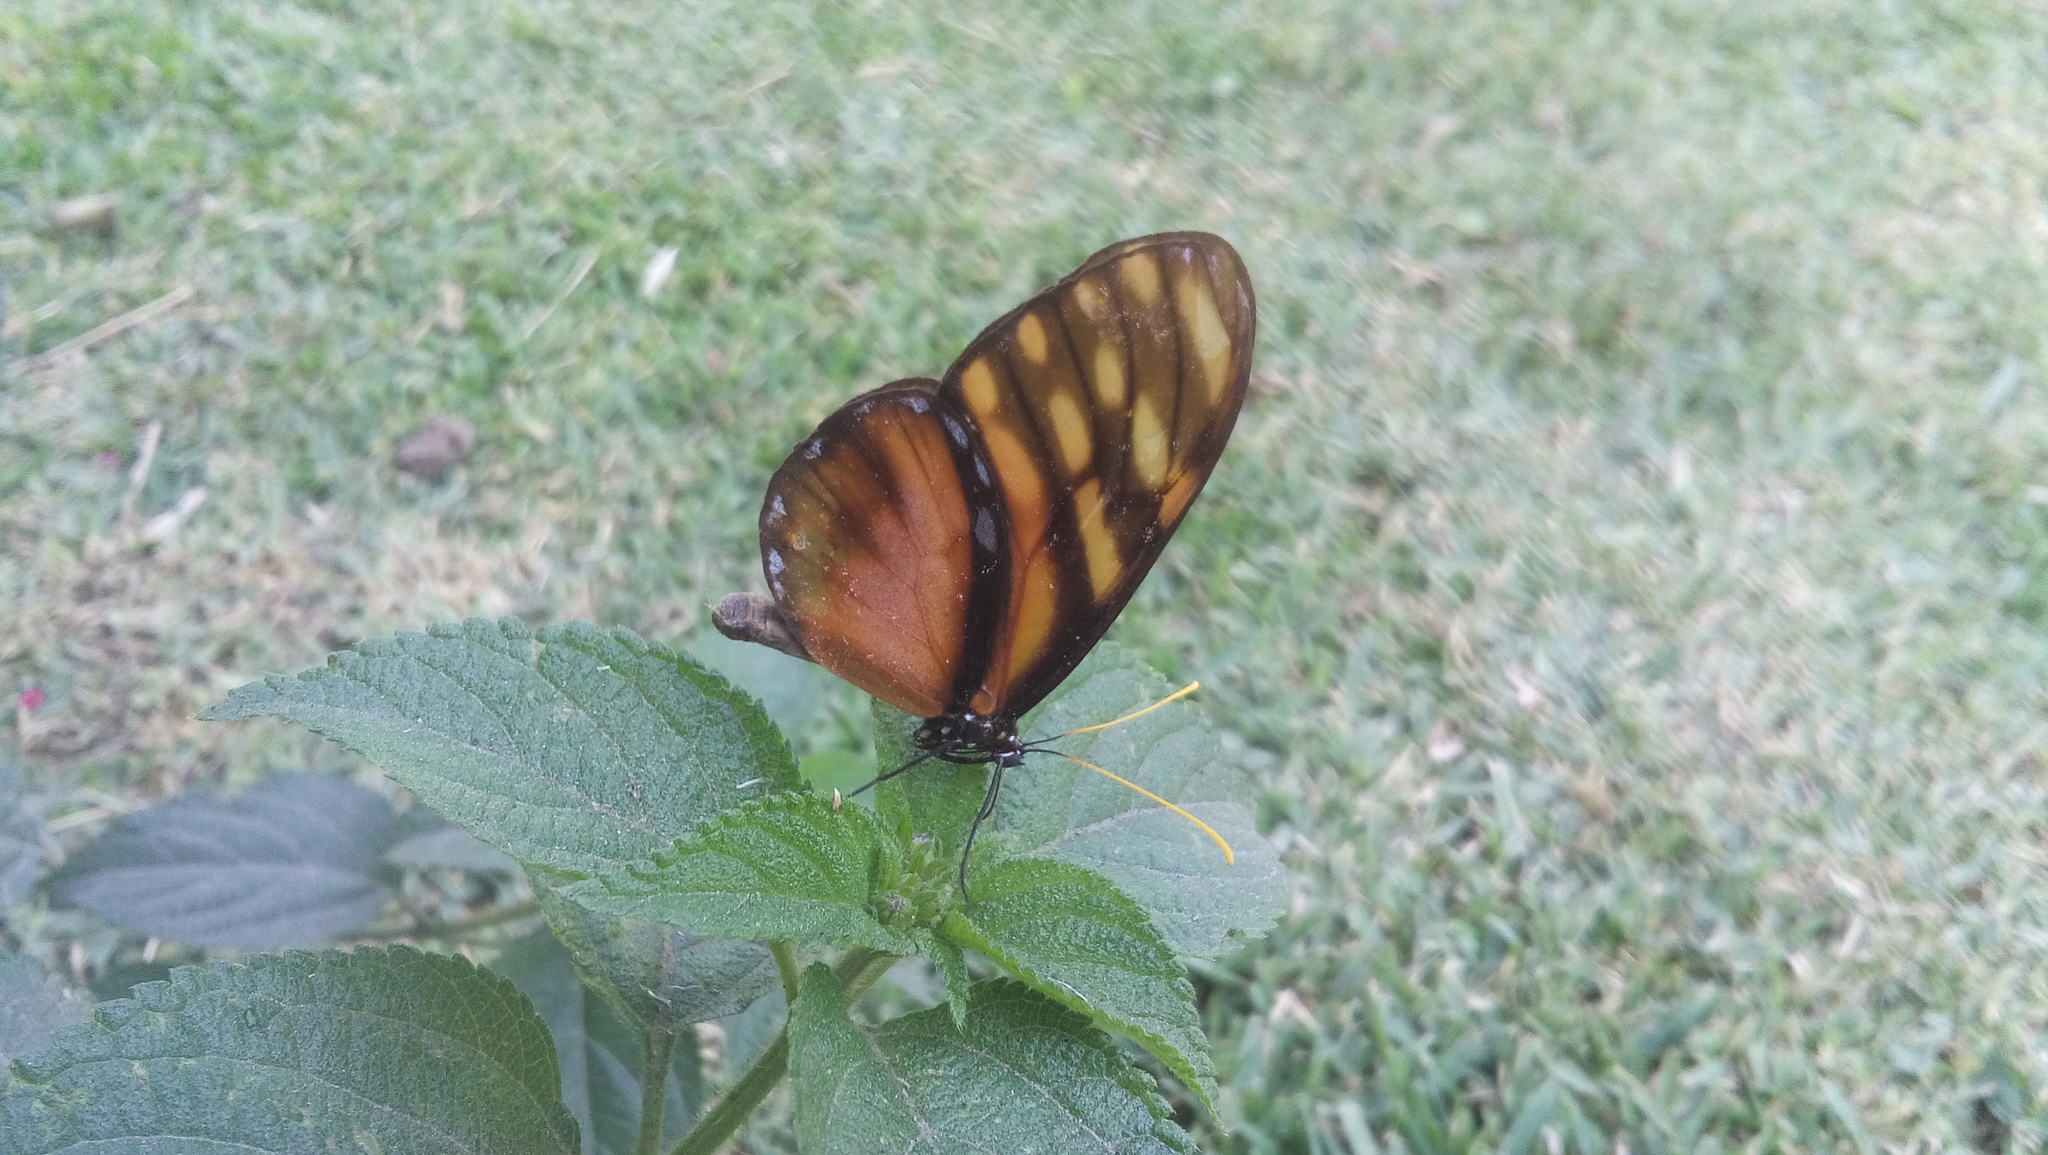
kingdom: Animalia
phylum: Arthropoda
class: Insecta
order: Lepidoptera
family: Nymphalidae
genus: Dircenna
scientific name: Dircenna
